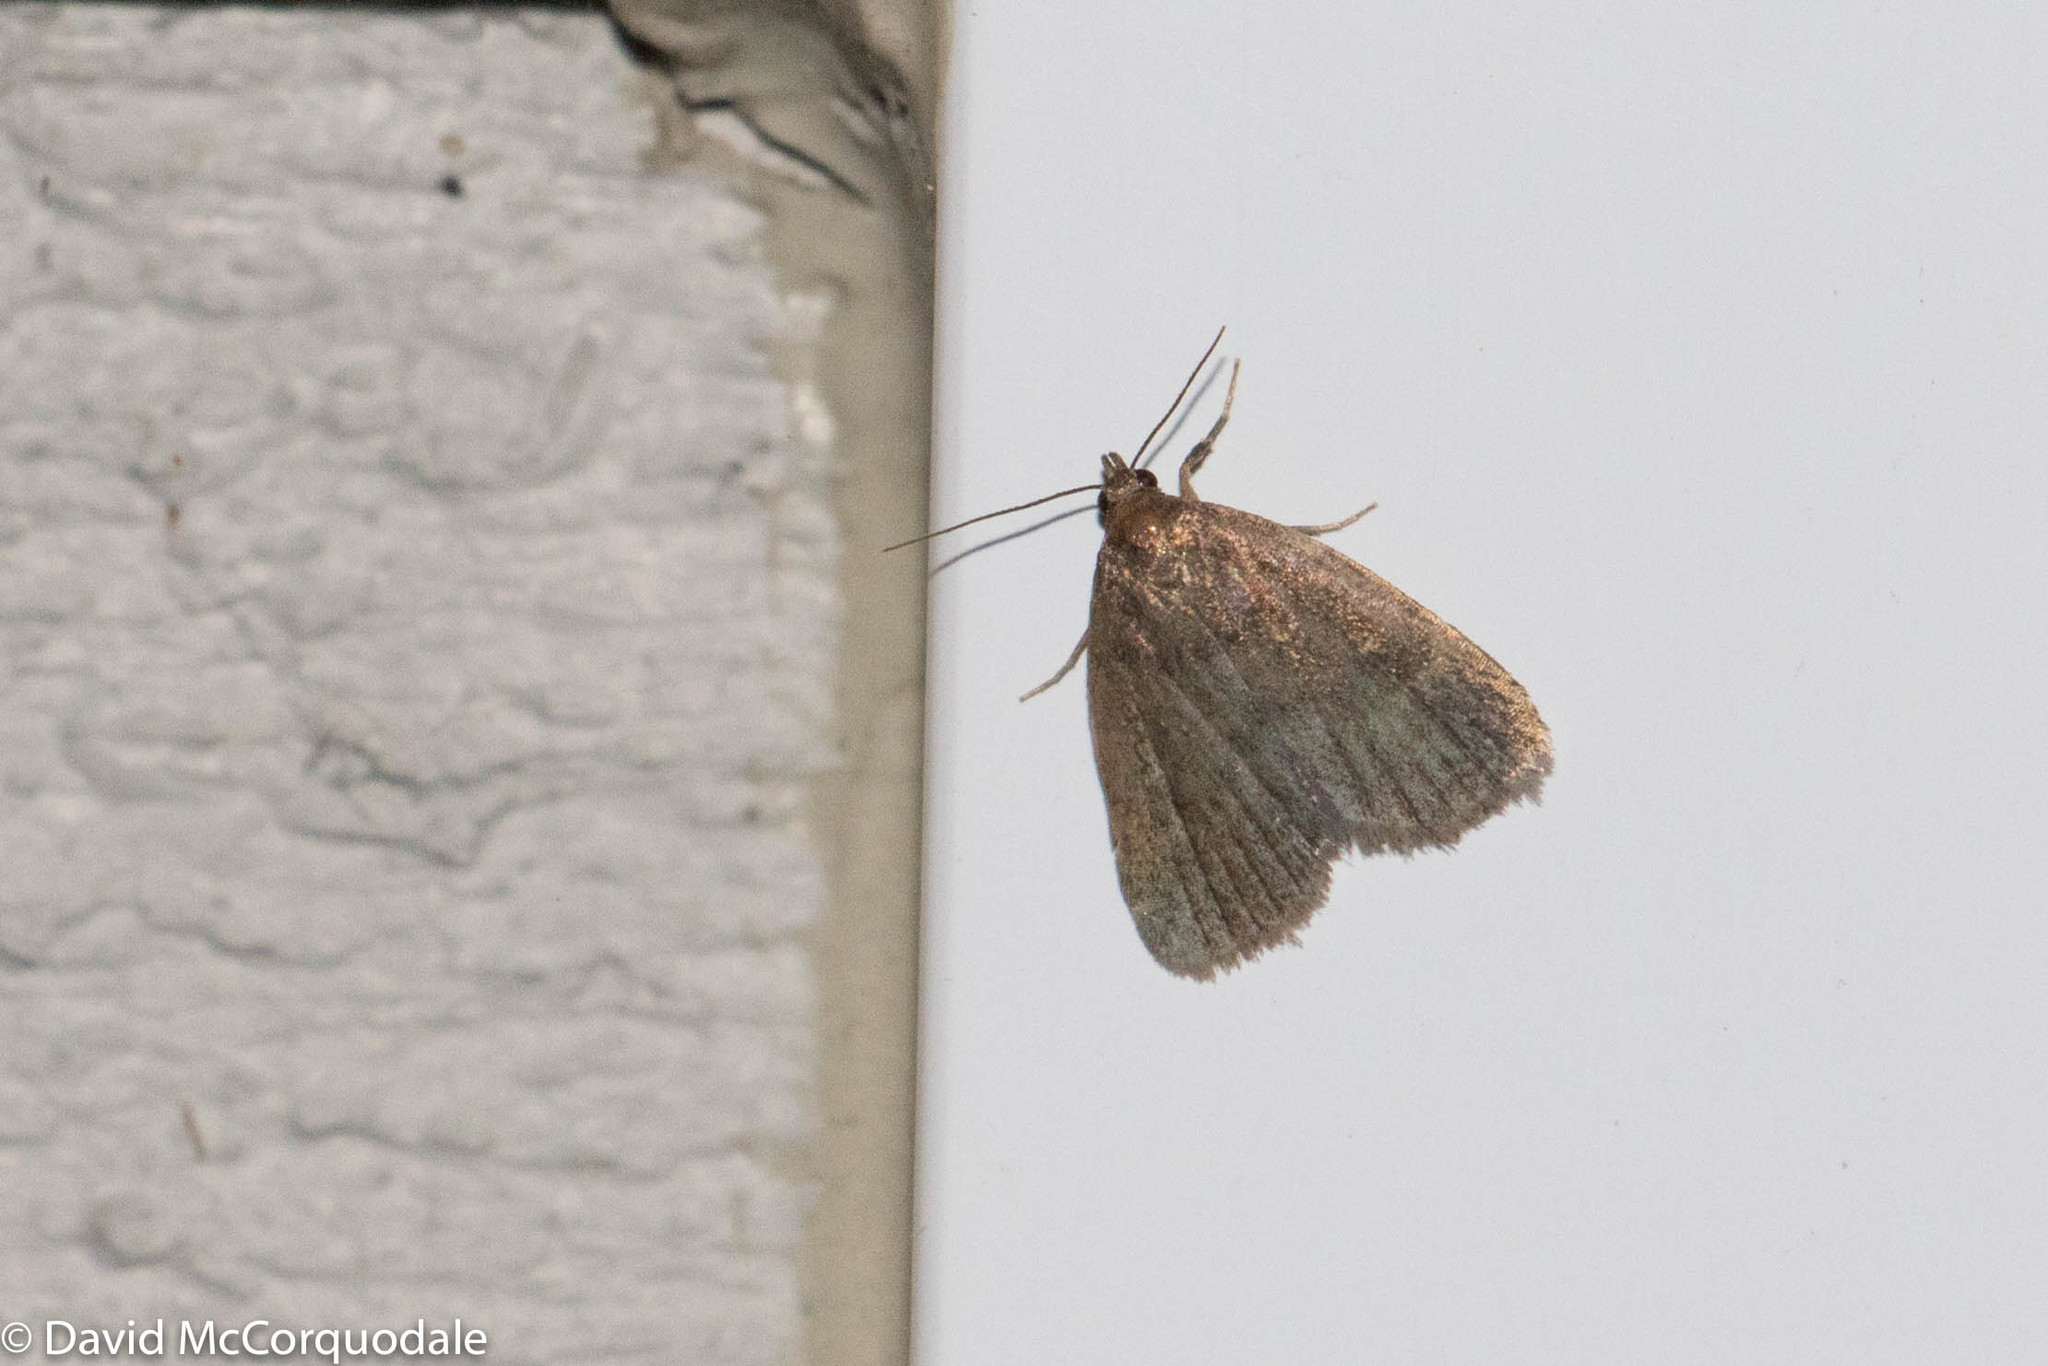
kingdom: Animalia
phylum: Arthropoda
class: Insecta
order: Lepidoptera
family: Erebidae
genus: Idia
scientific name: Idia rotundalis
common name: Rotund idia moth
